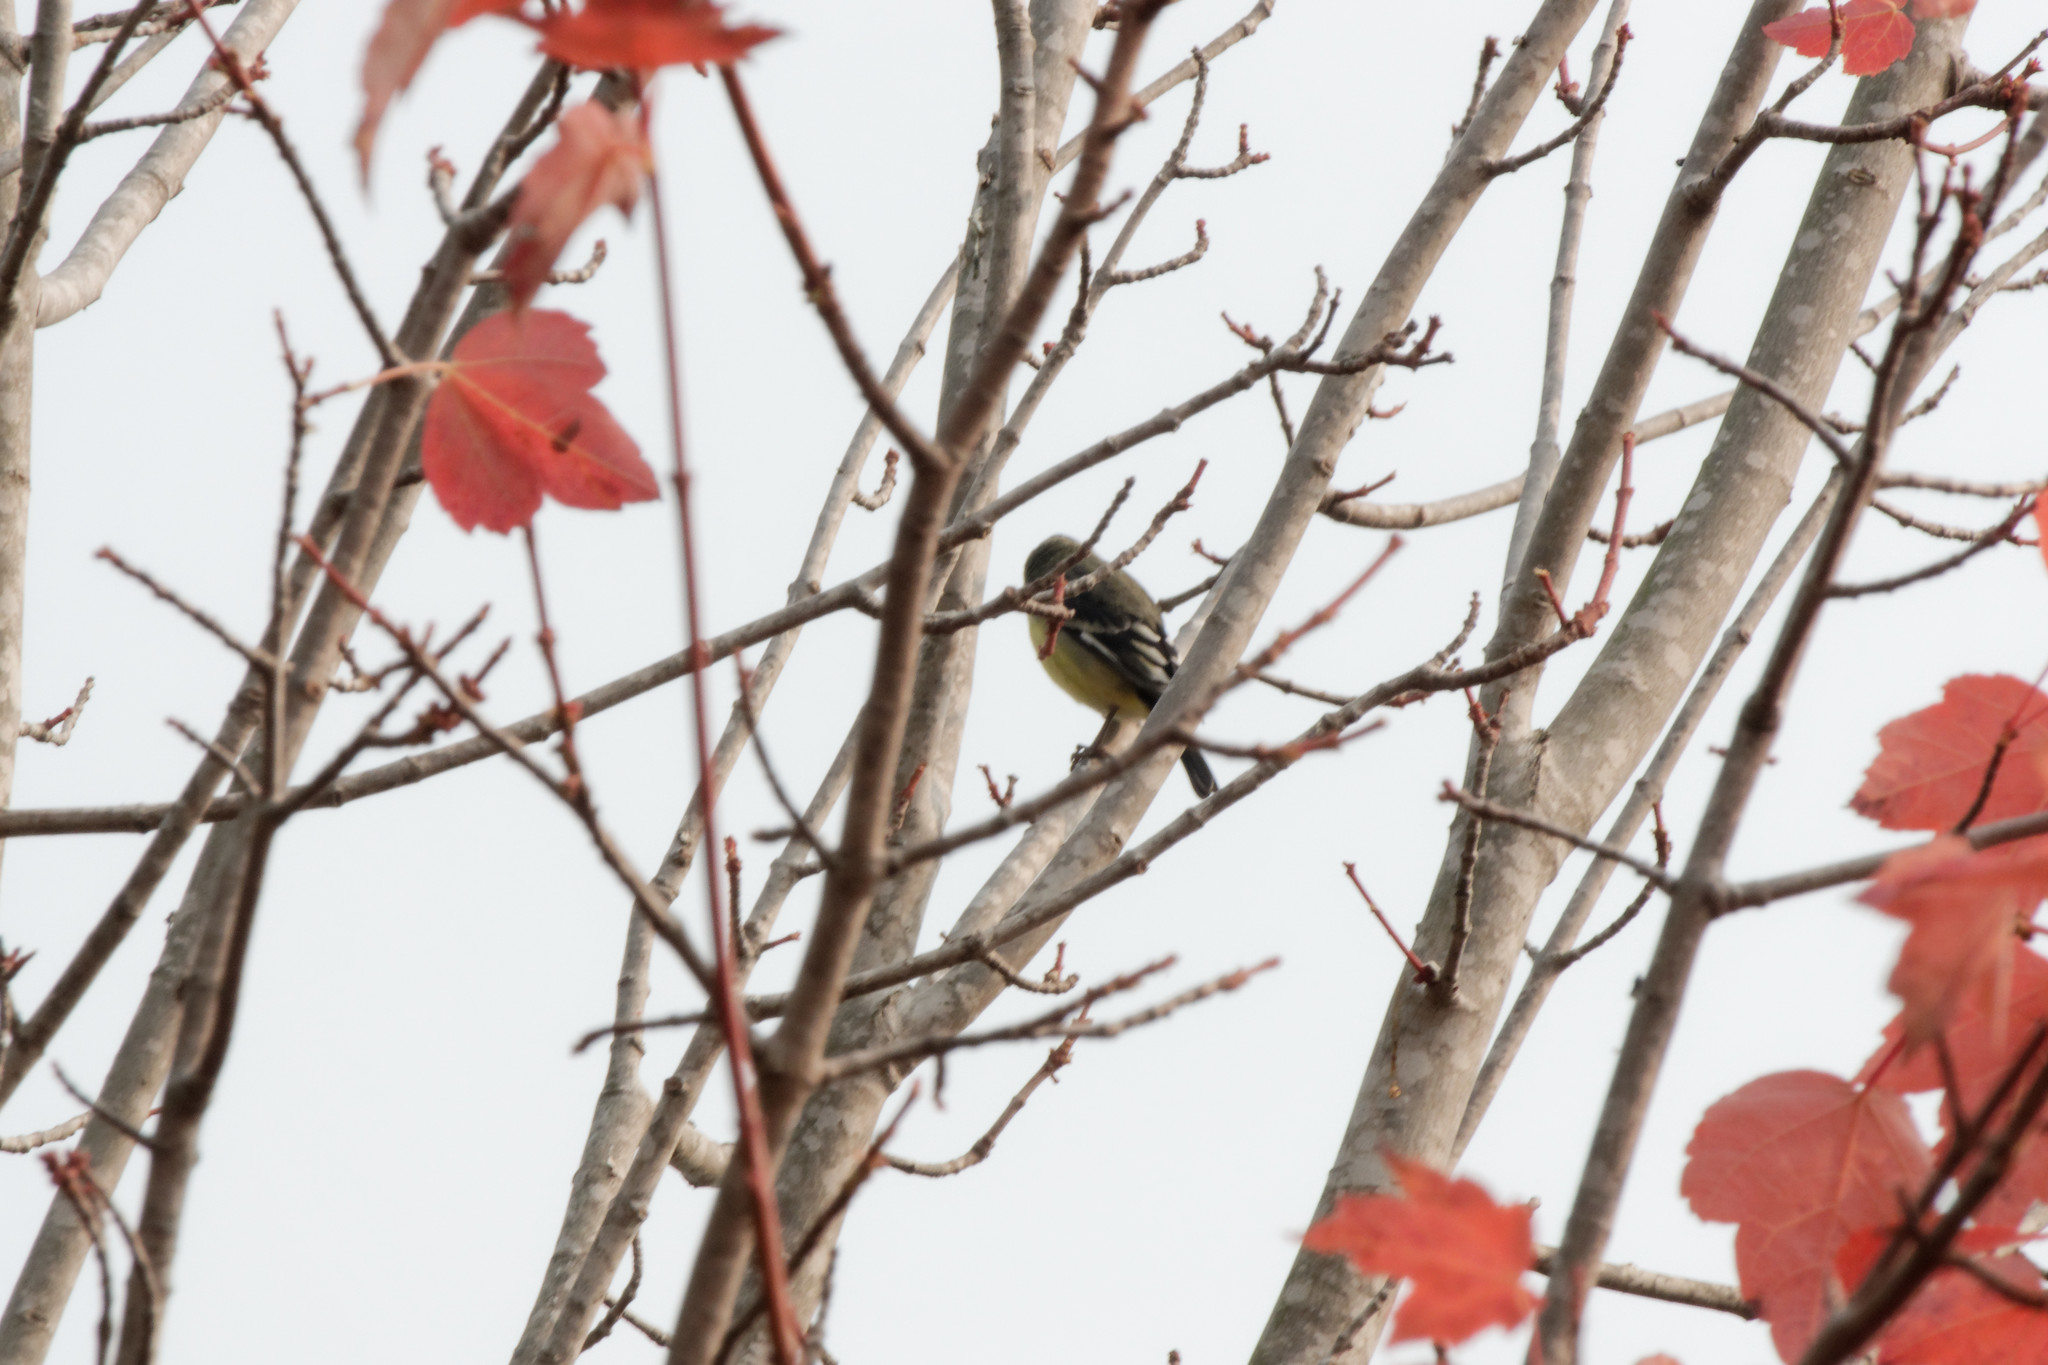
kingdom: Animalia
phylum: Chordata
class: Aves
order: Passeriformes
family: Fringillidae
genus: Spinus
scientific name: Spinus psaltria
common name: Lesser goldfinch
